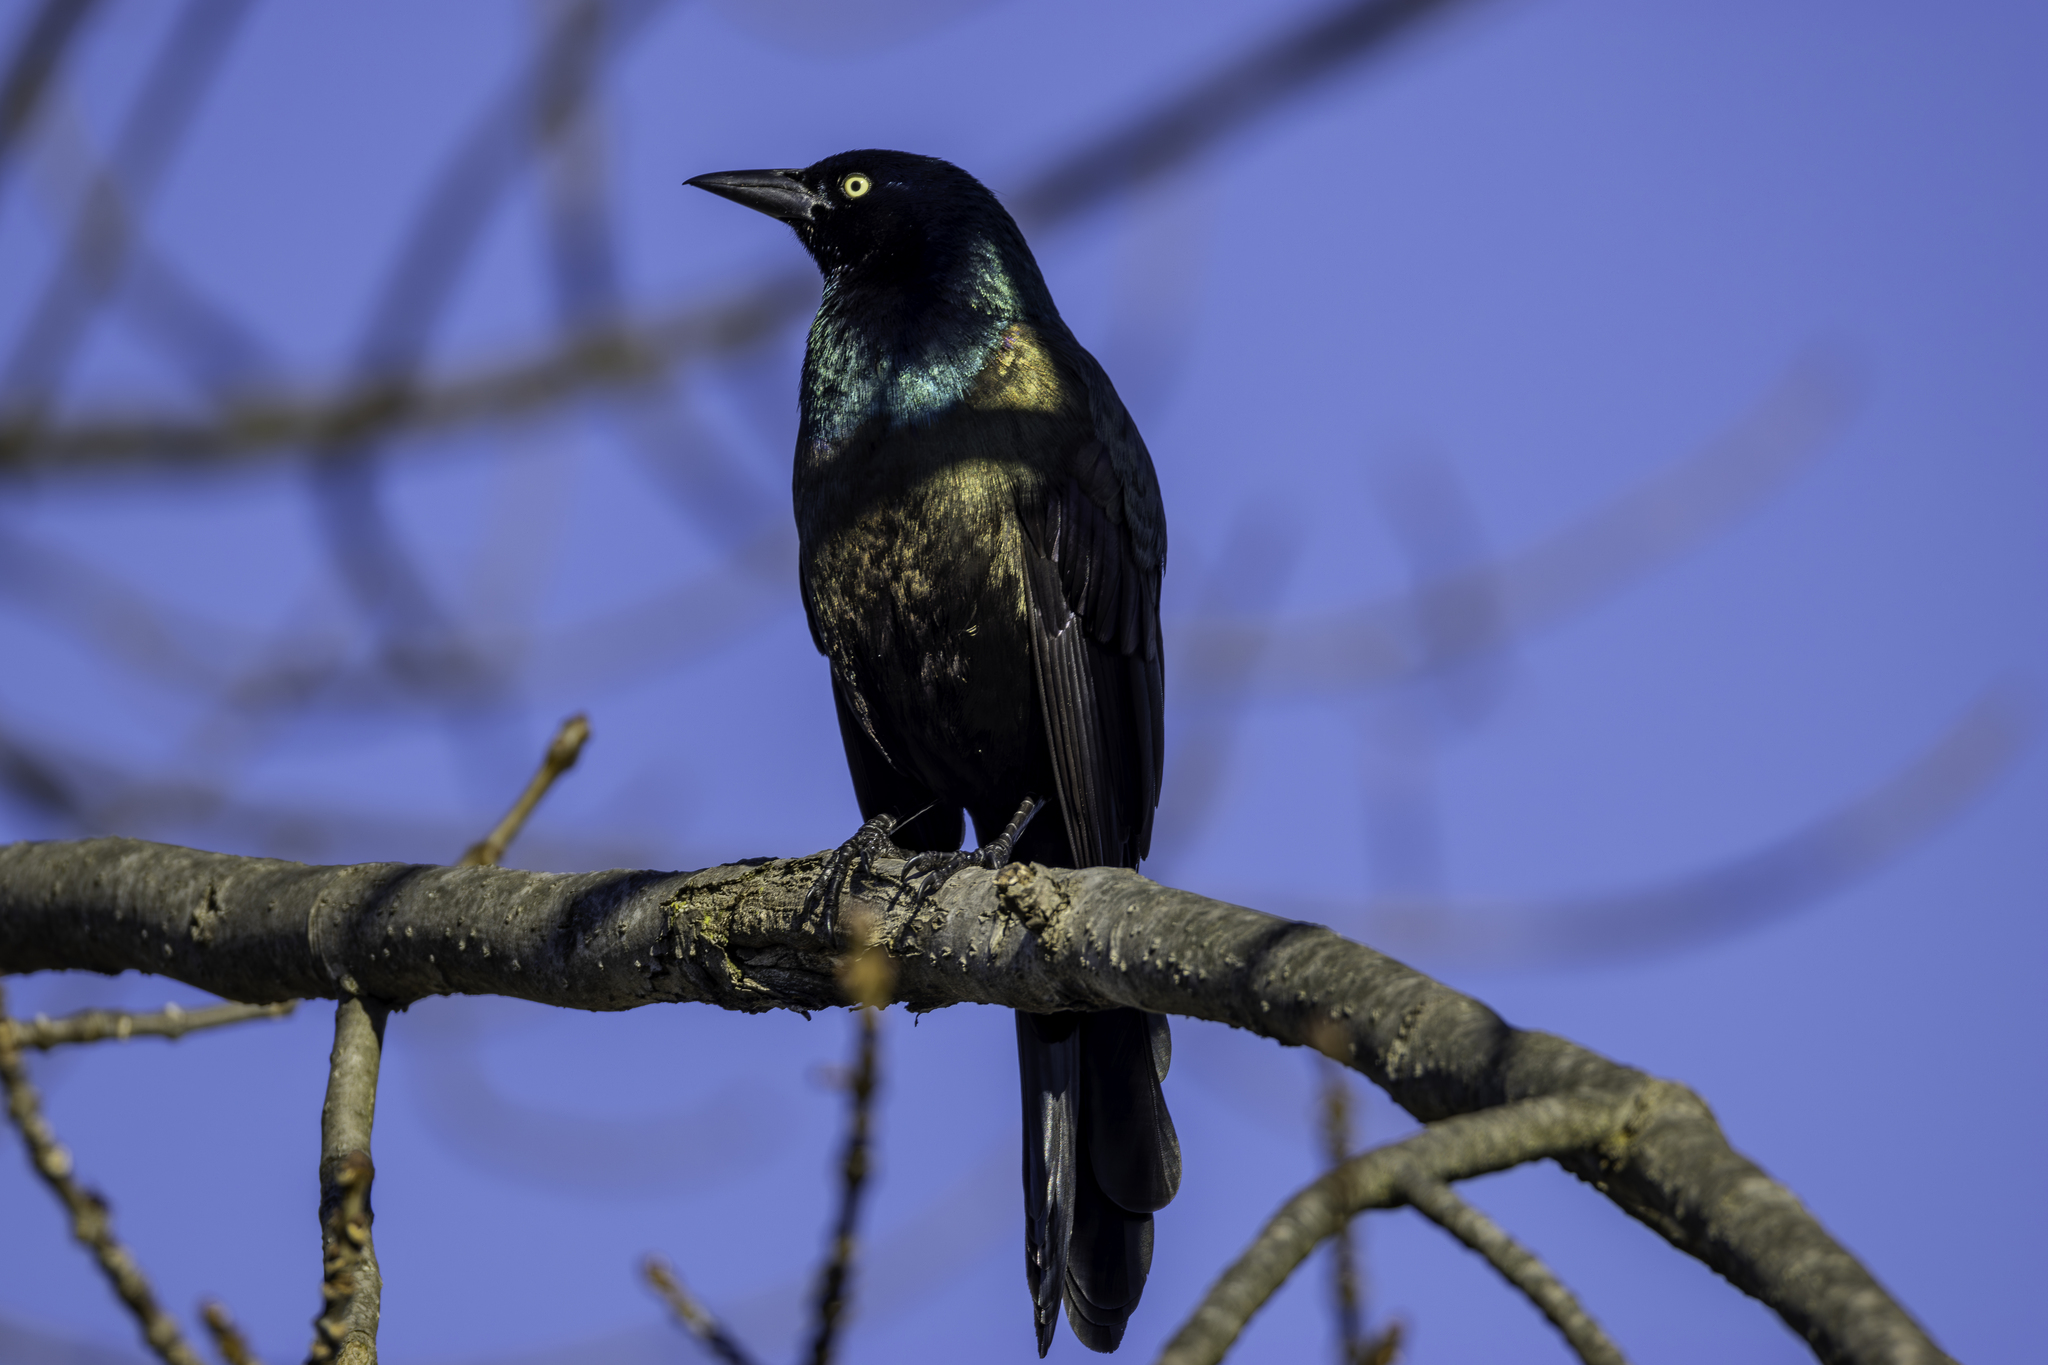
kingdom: Animalia
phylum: Chordata
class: Aves
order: Passeriformes
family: Icteridae
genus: Quiscalus
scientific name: Quiscalus quiscula
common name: Common grackle
